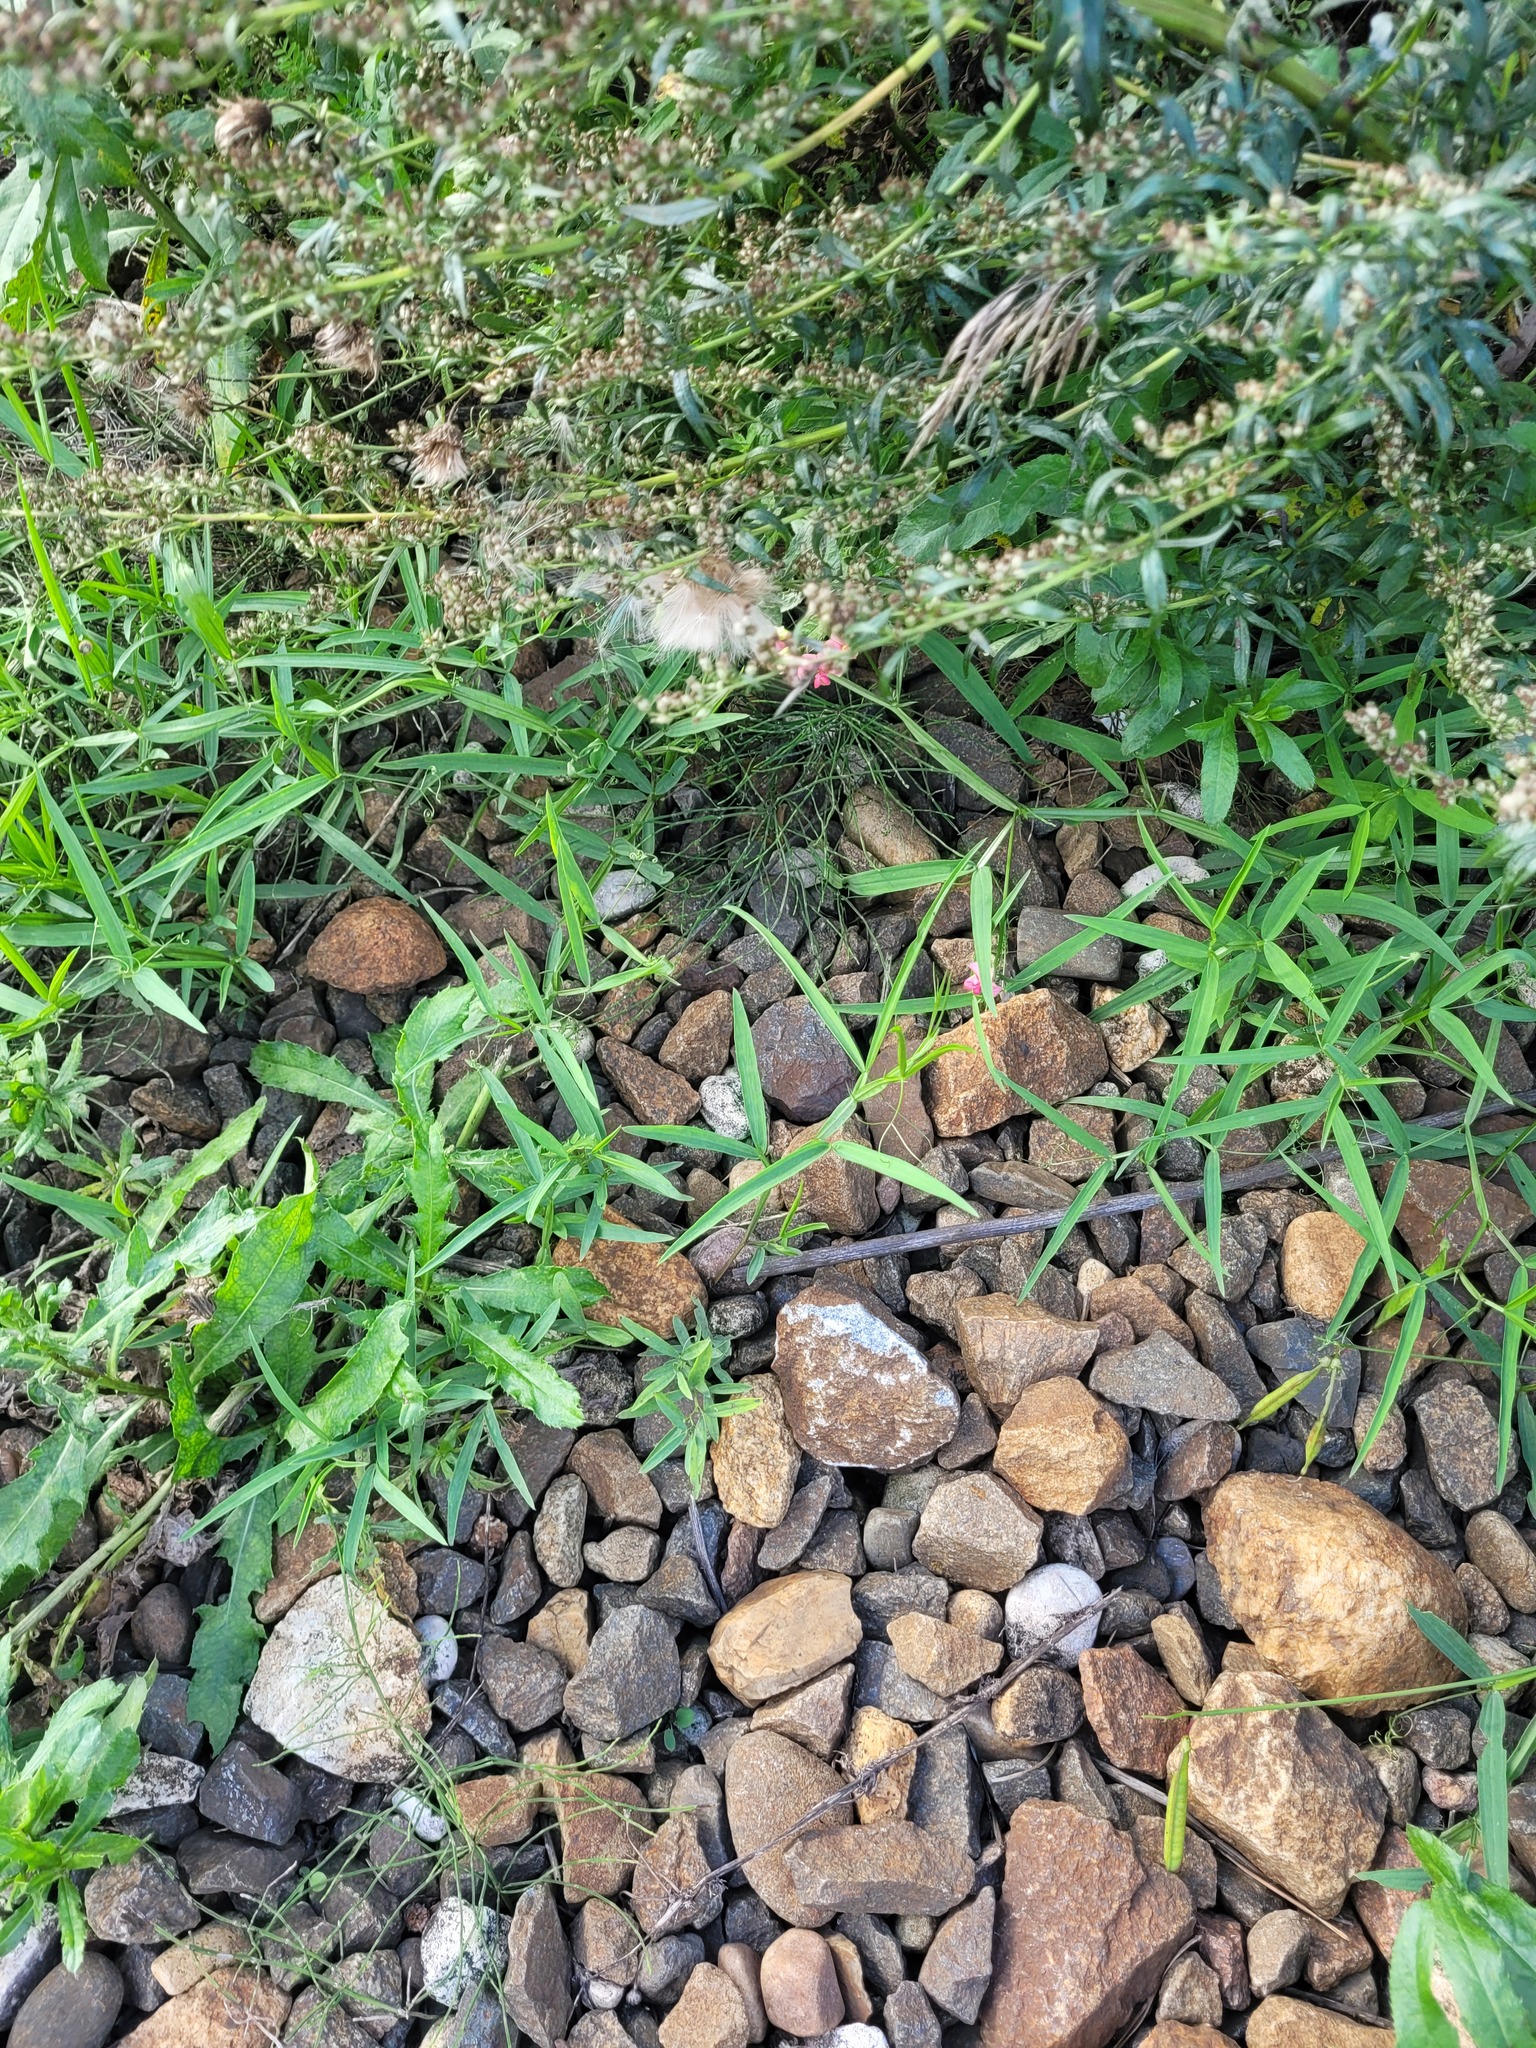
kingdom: Plantae
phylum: Tracheophyta
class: Magnoliopsida
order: Fabales
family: Fabaceae
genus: Lathyrus
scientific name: Lathyrus sylvestris
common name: Flat pea
